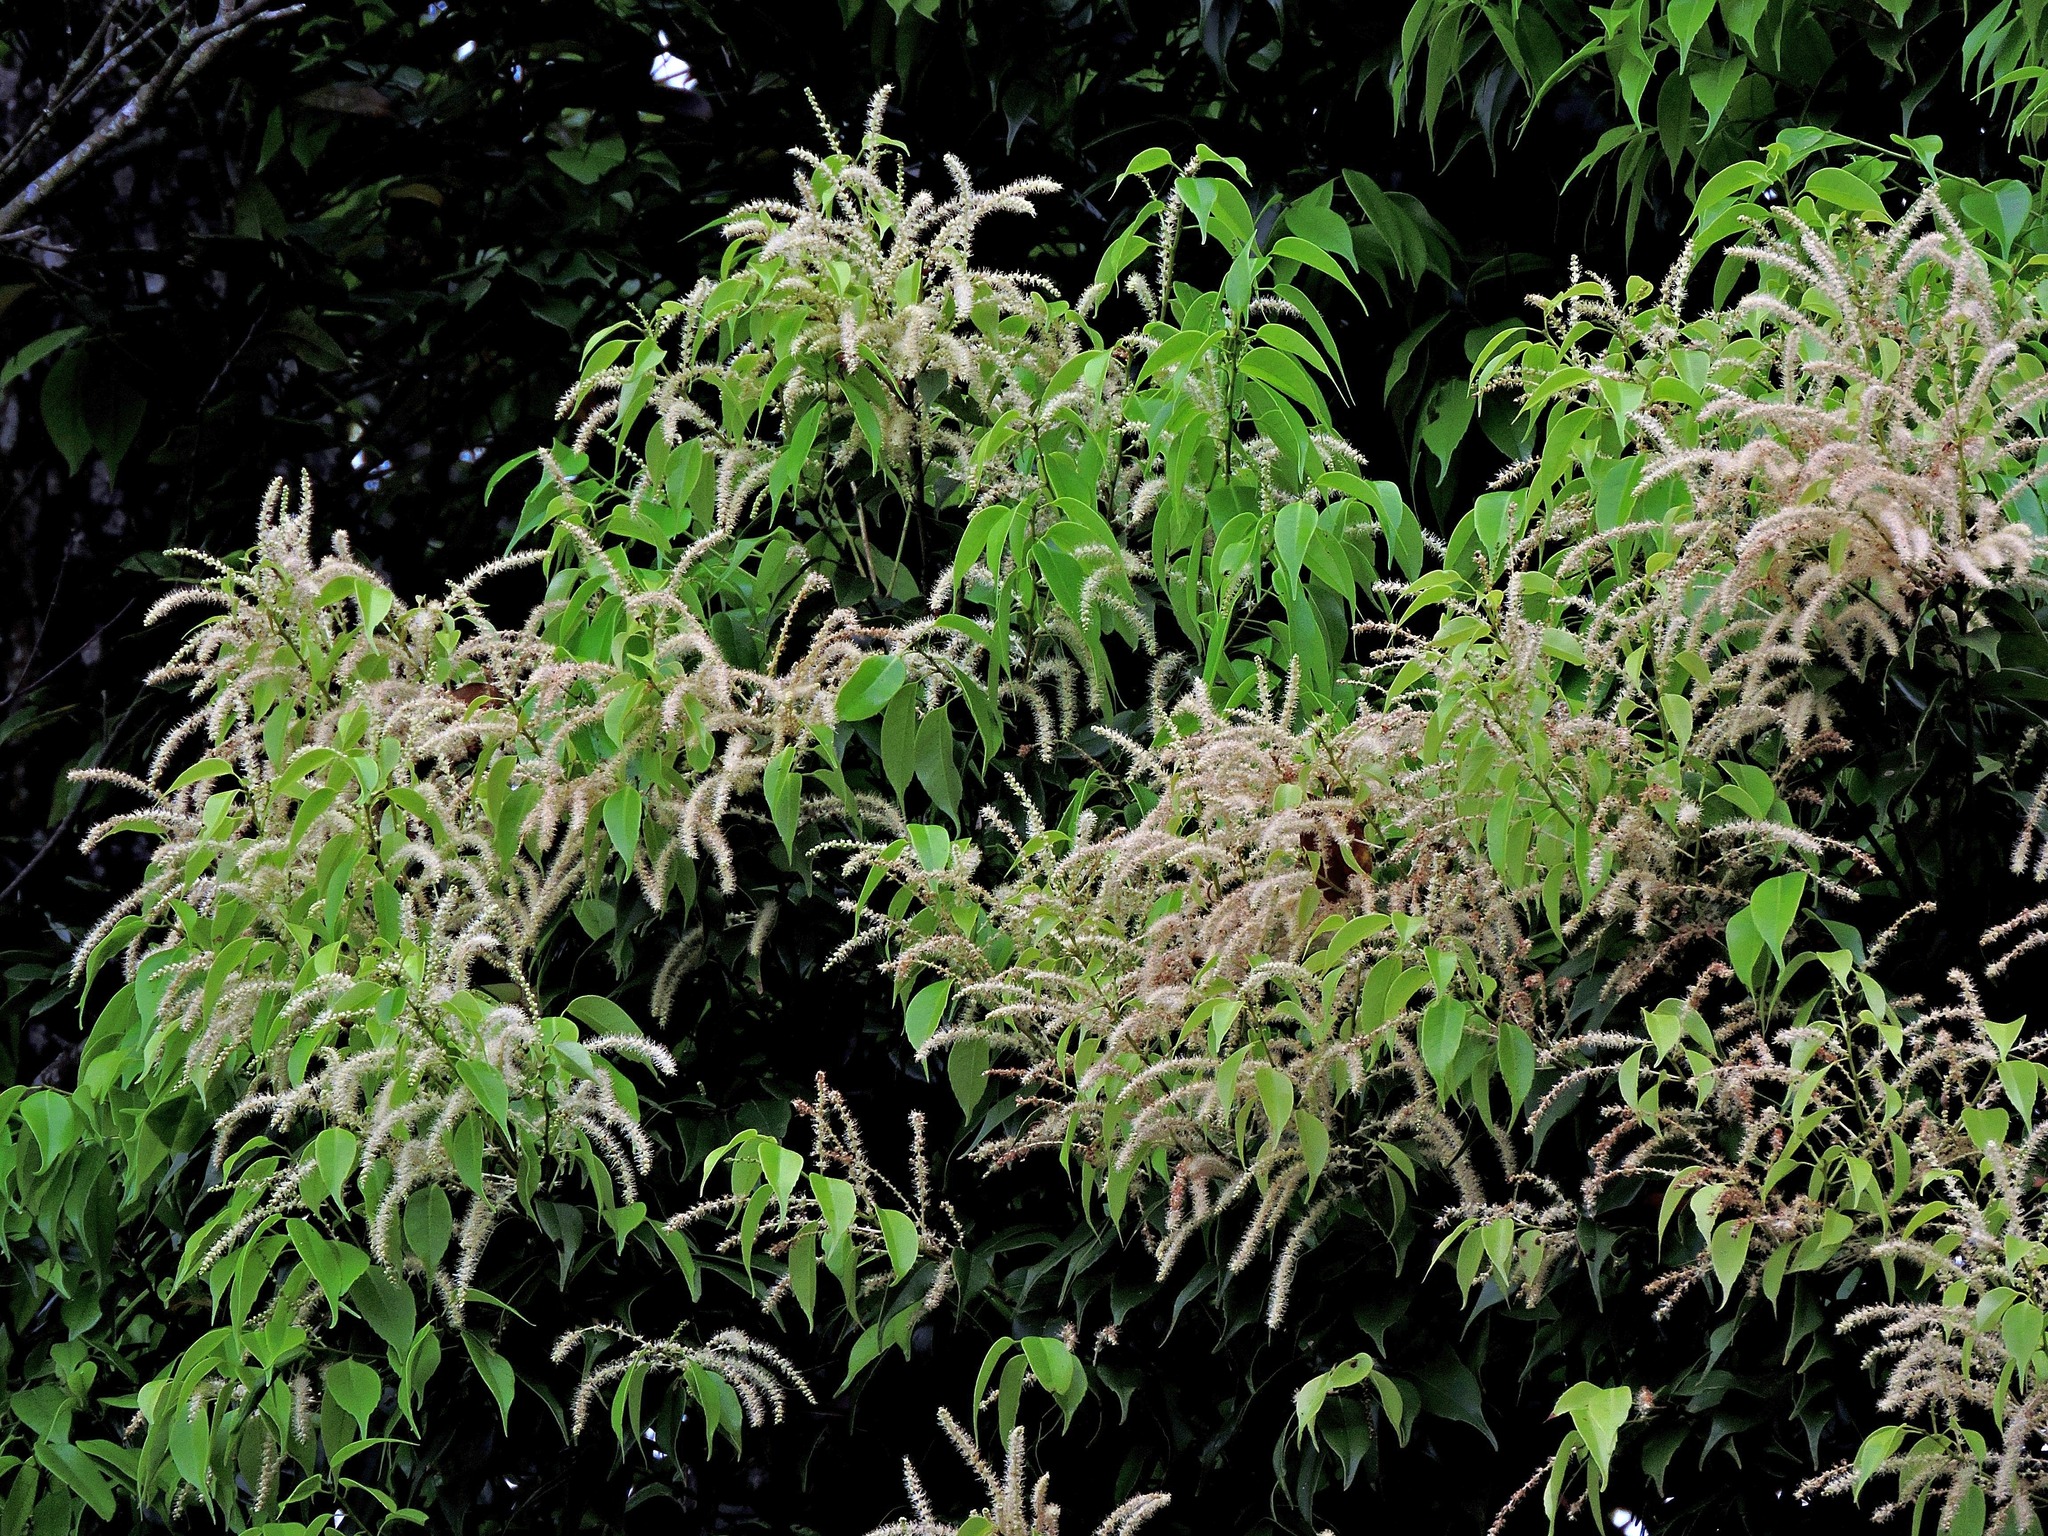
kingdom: Plantae
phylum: Tracheophyta
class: Magnoliopsida
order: Fagales
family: Fagaceae
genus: Castanopsis
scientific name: Castanopsis eyrei
